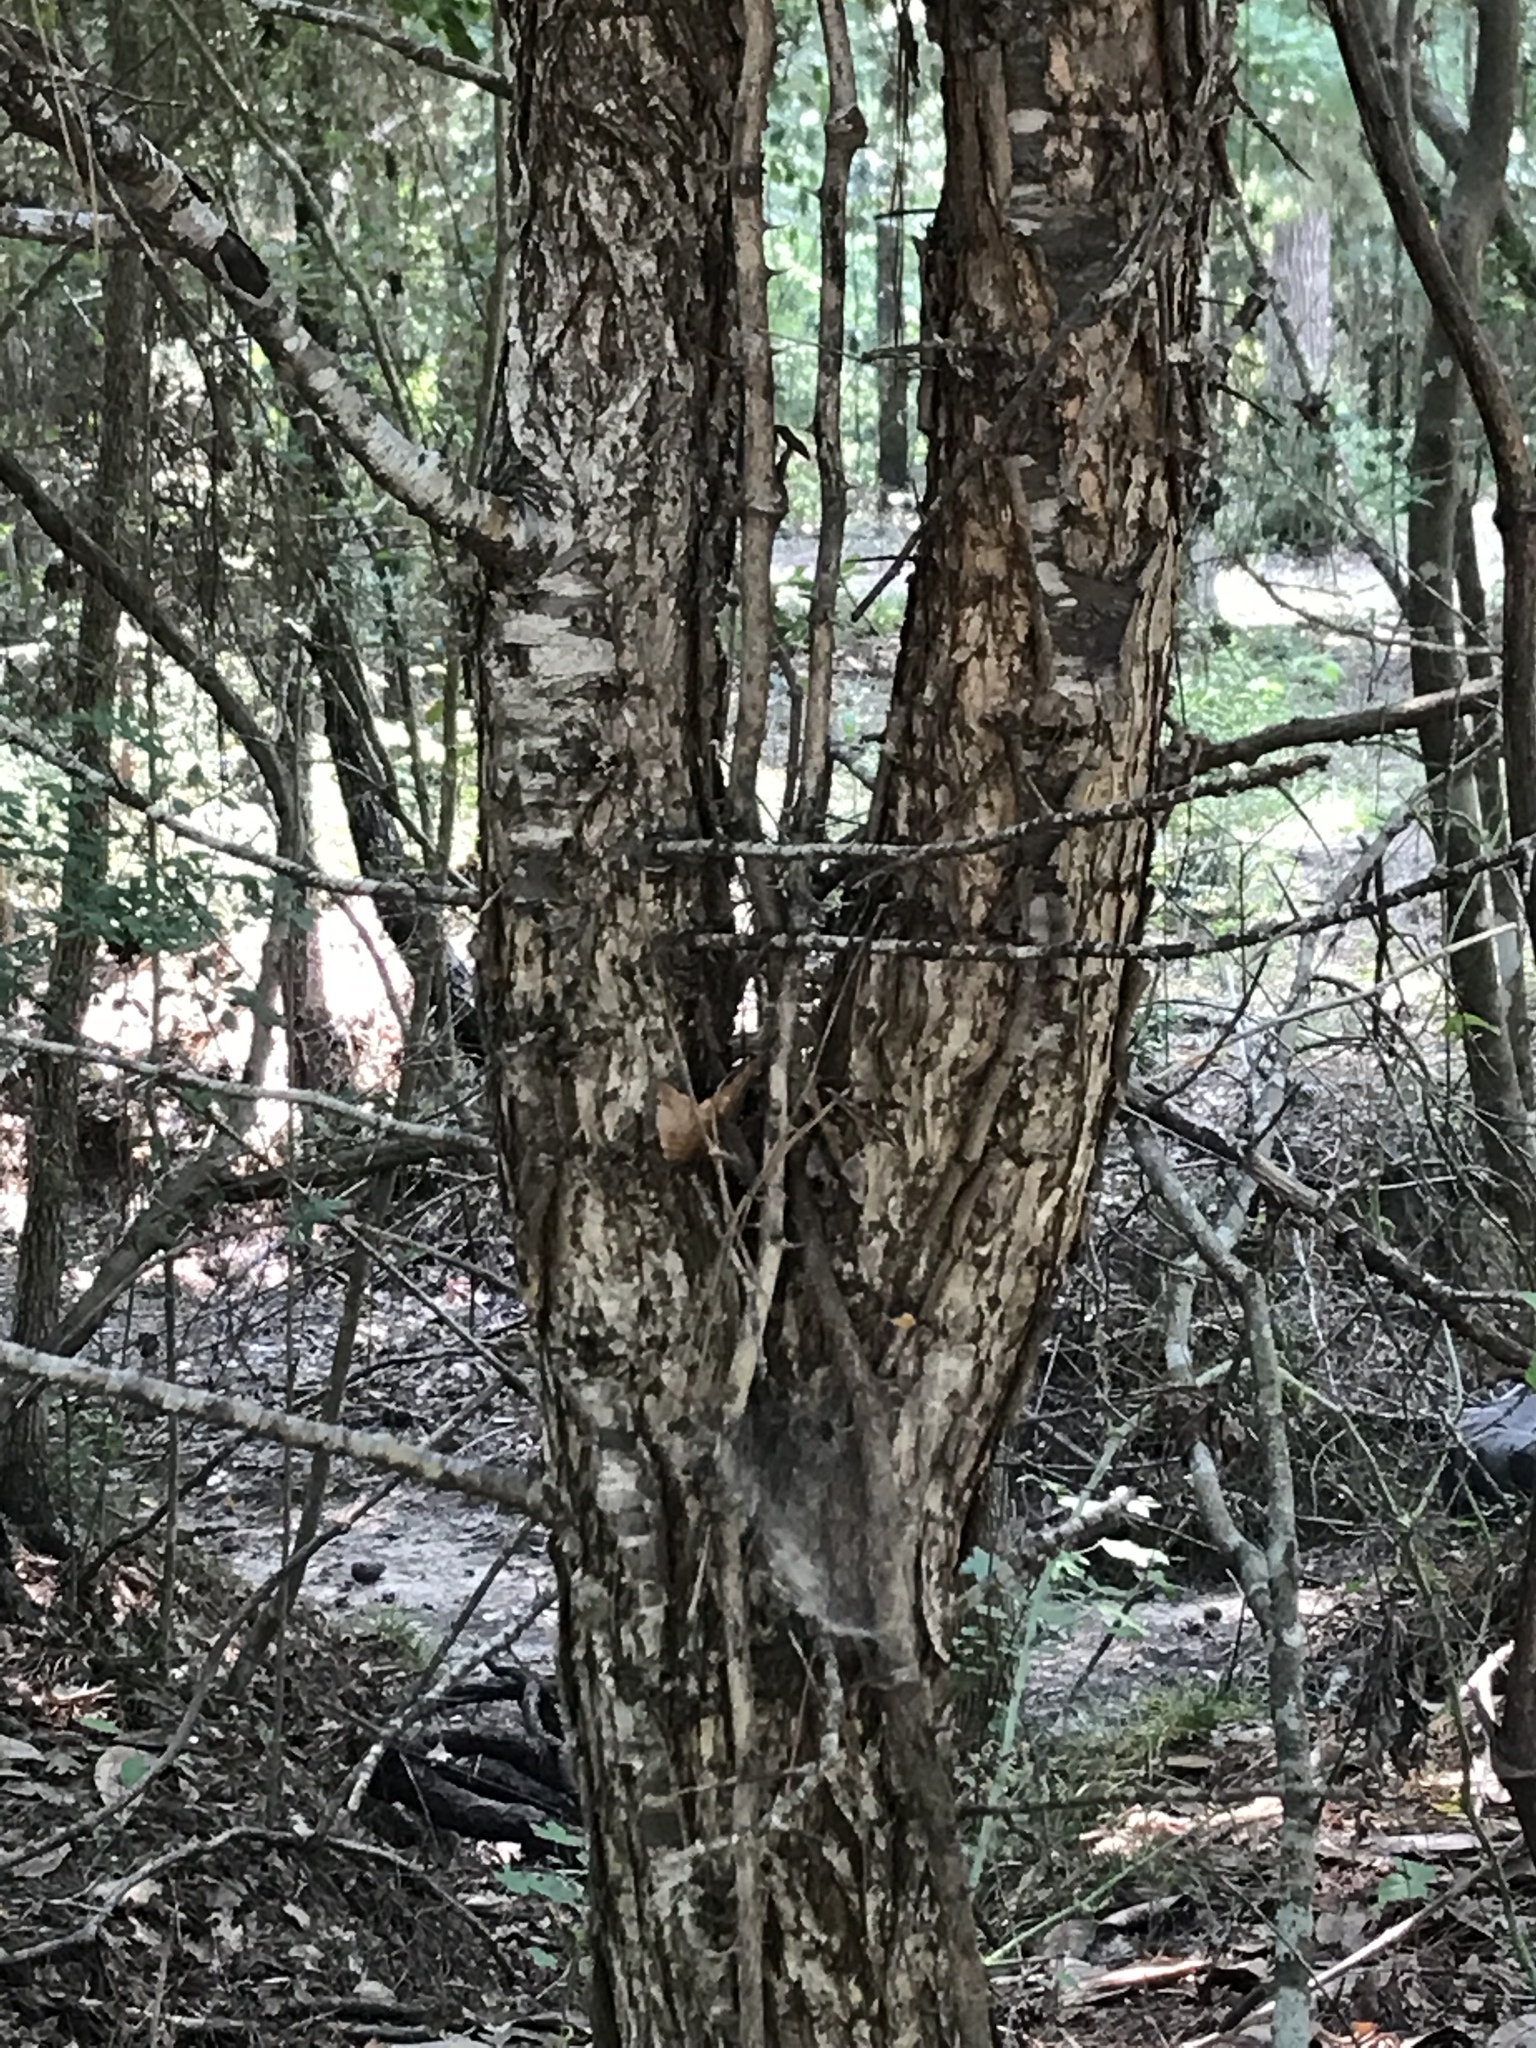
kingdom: Plantae
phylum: Tracheophyta
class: Magnoliopsida
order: Rosales
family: Rosaceae
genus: Prunus
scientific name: Prunus mexicana
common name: Mexican plum
